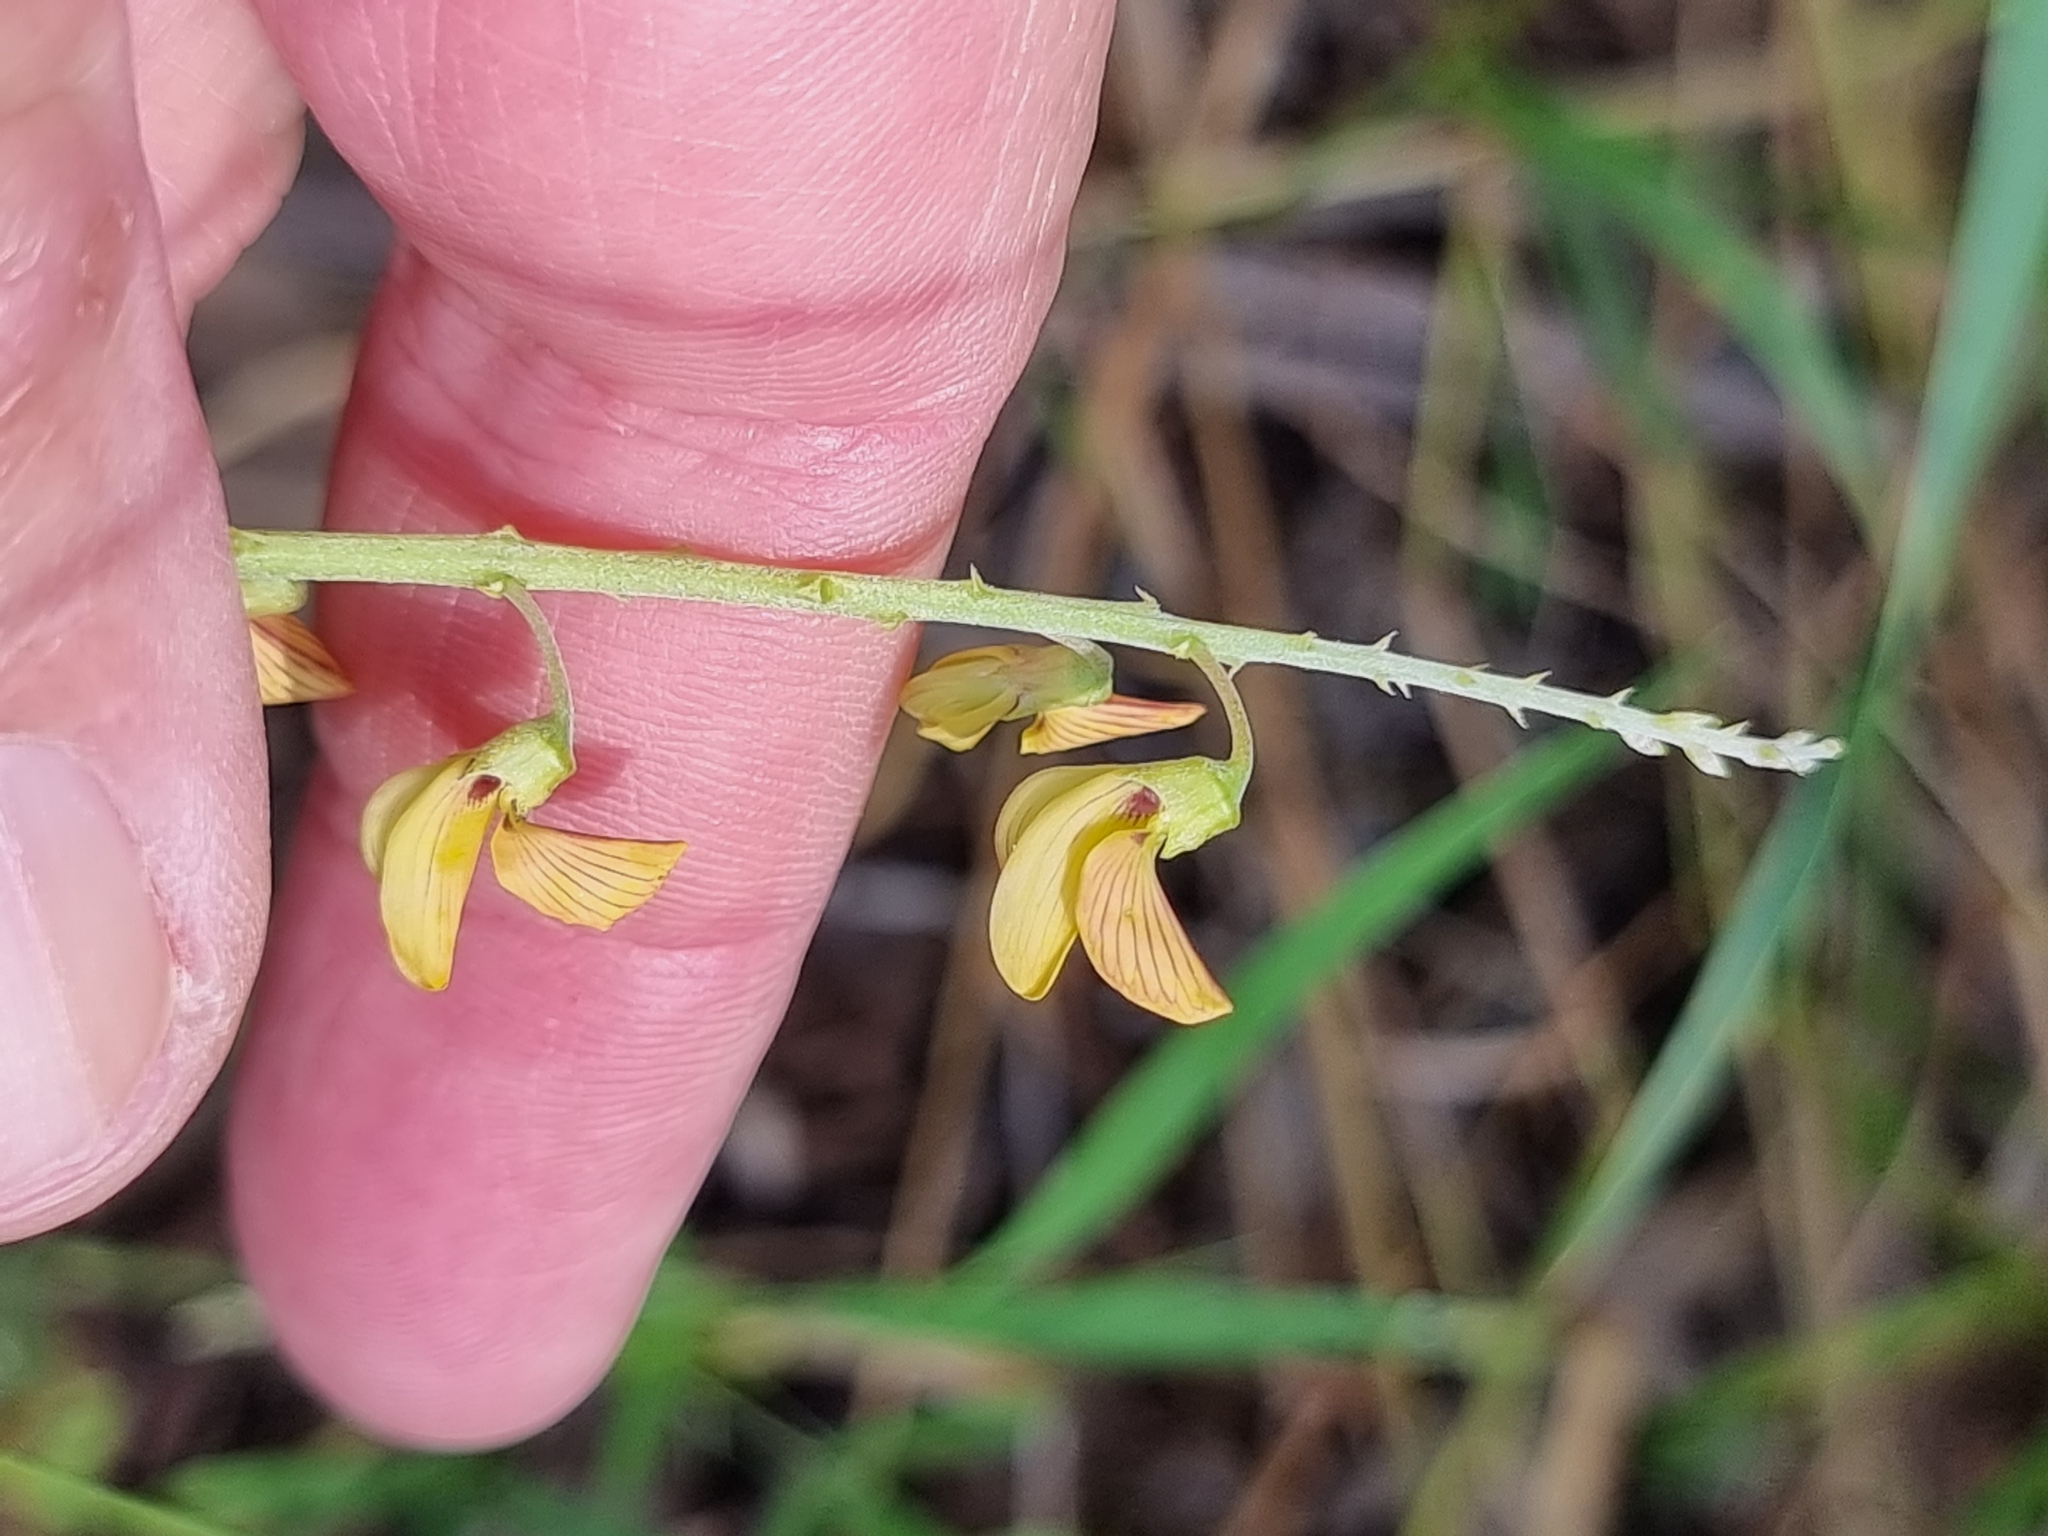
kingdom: Plantae
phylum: Tracheophyta
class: Magnoliopsida
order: Fabales
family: Fabaceae
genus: Crotalaria
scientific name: Crotalaria lanceolata
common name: Lanceleaf rattlebox
